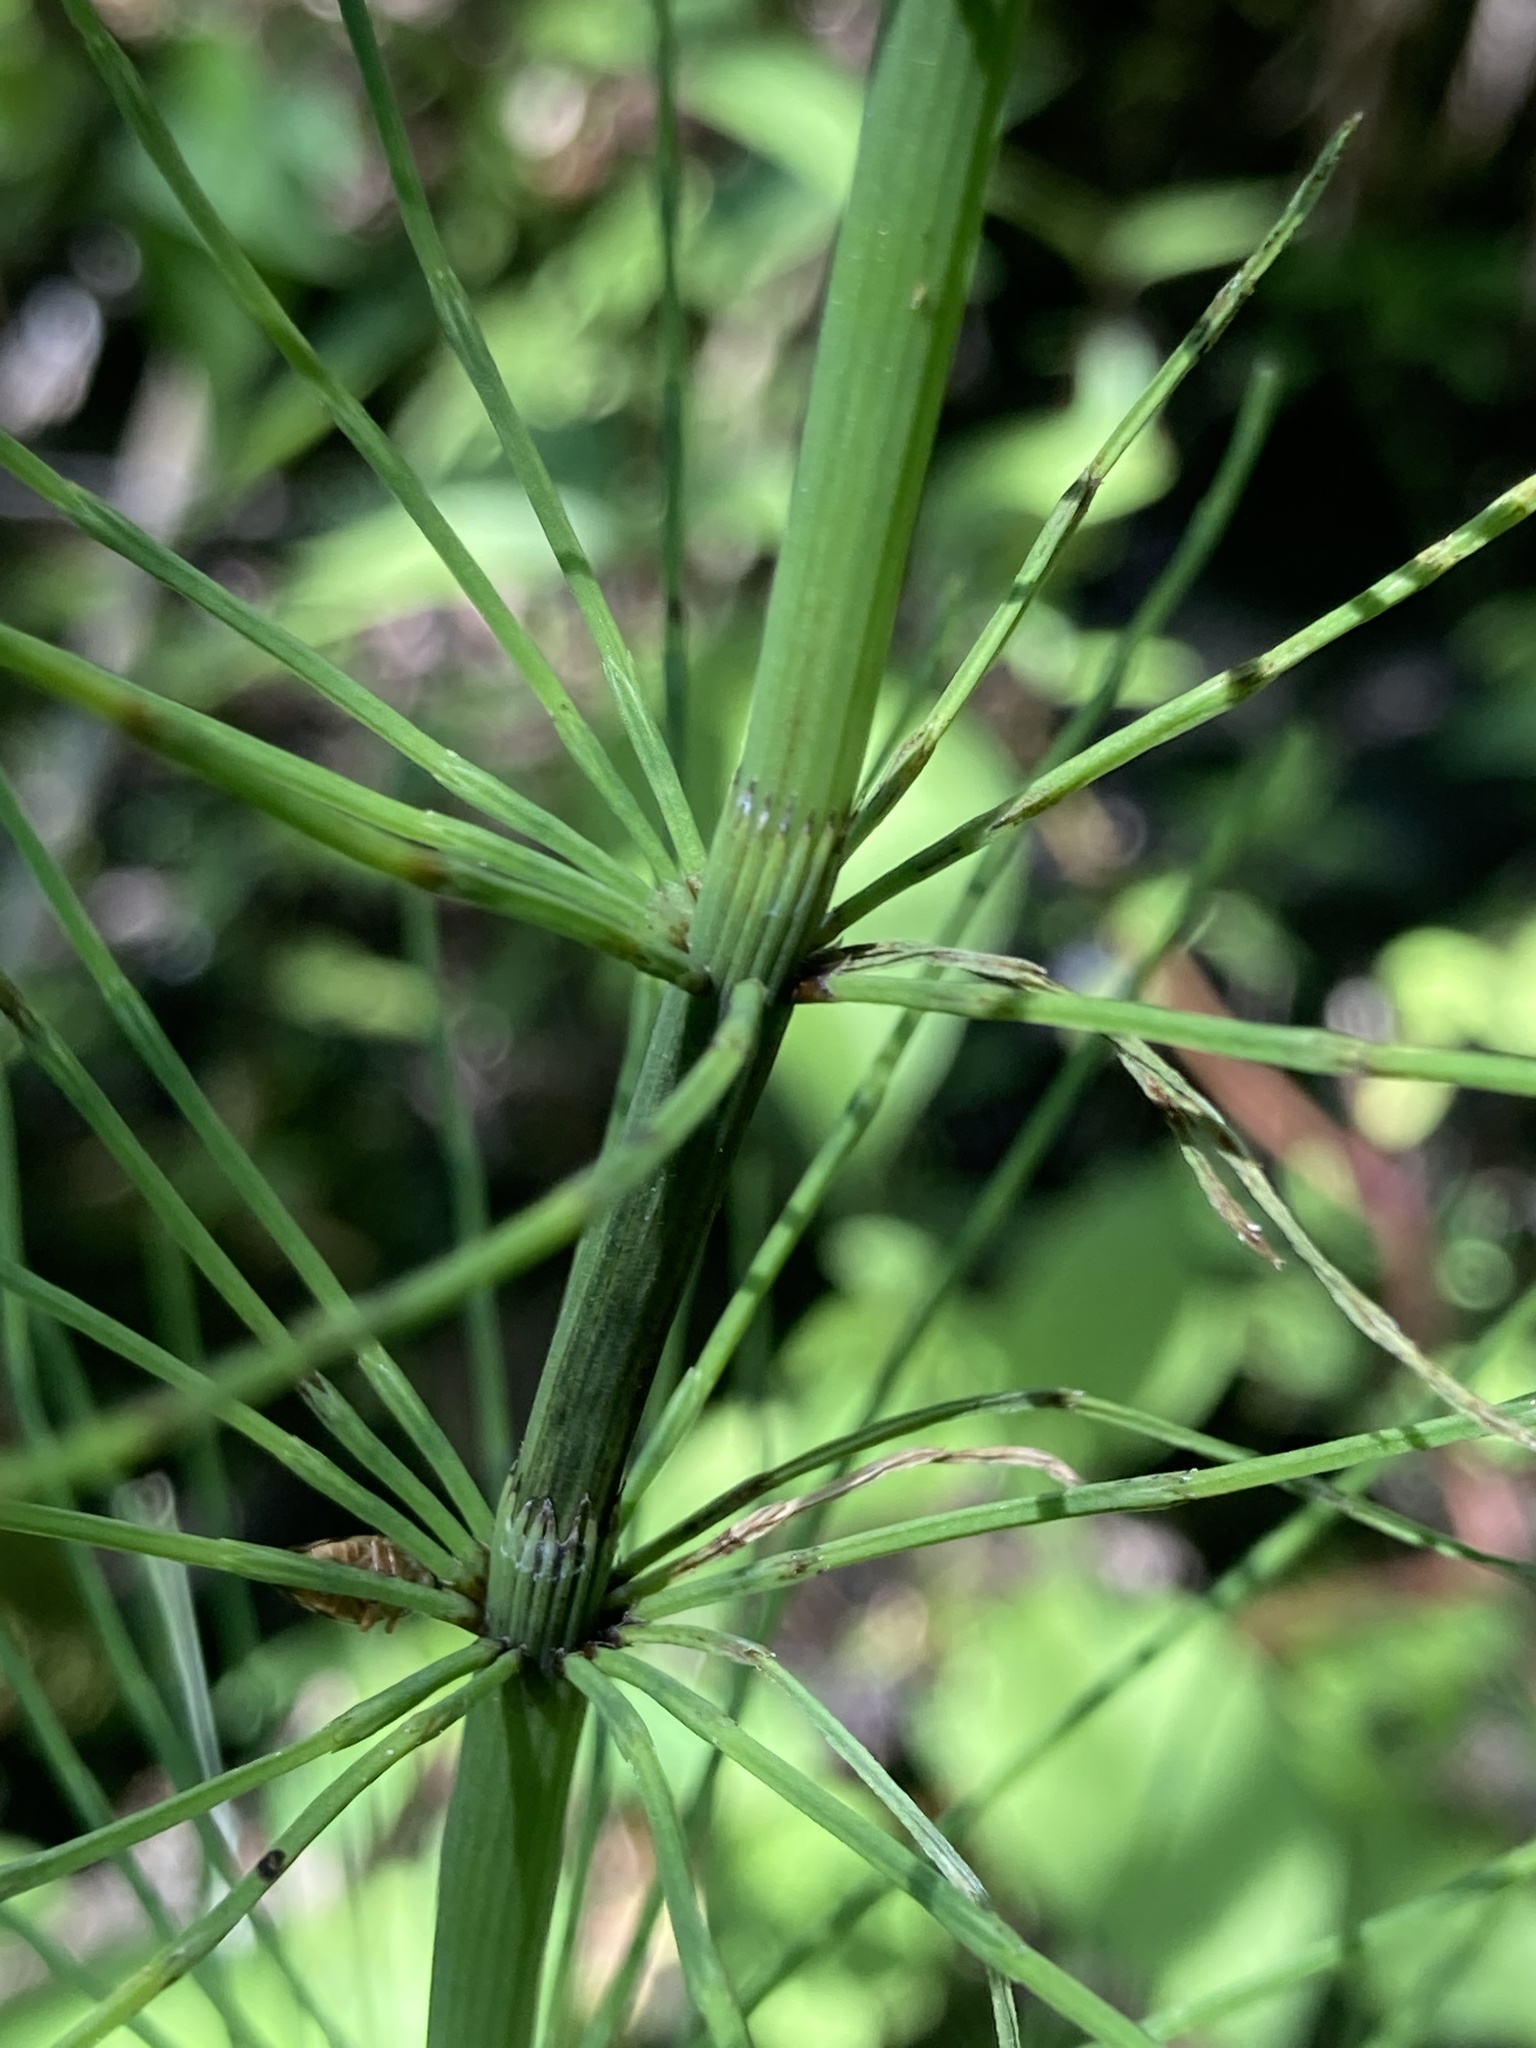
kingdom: Plantae
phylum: Tracheophyta
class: Polypodiopsida
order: Equisetales
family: Equisetaceae
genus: Equisetum
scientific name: Equisetum fluviatile
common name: Water horsetail
